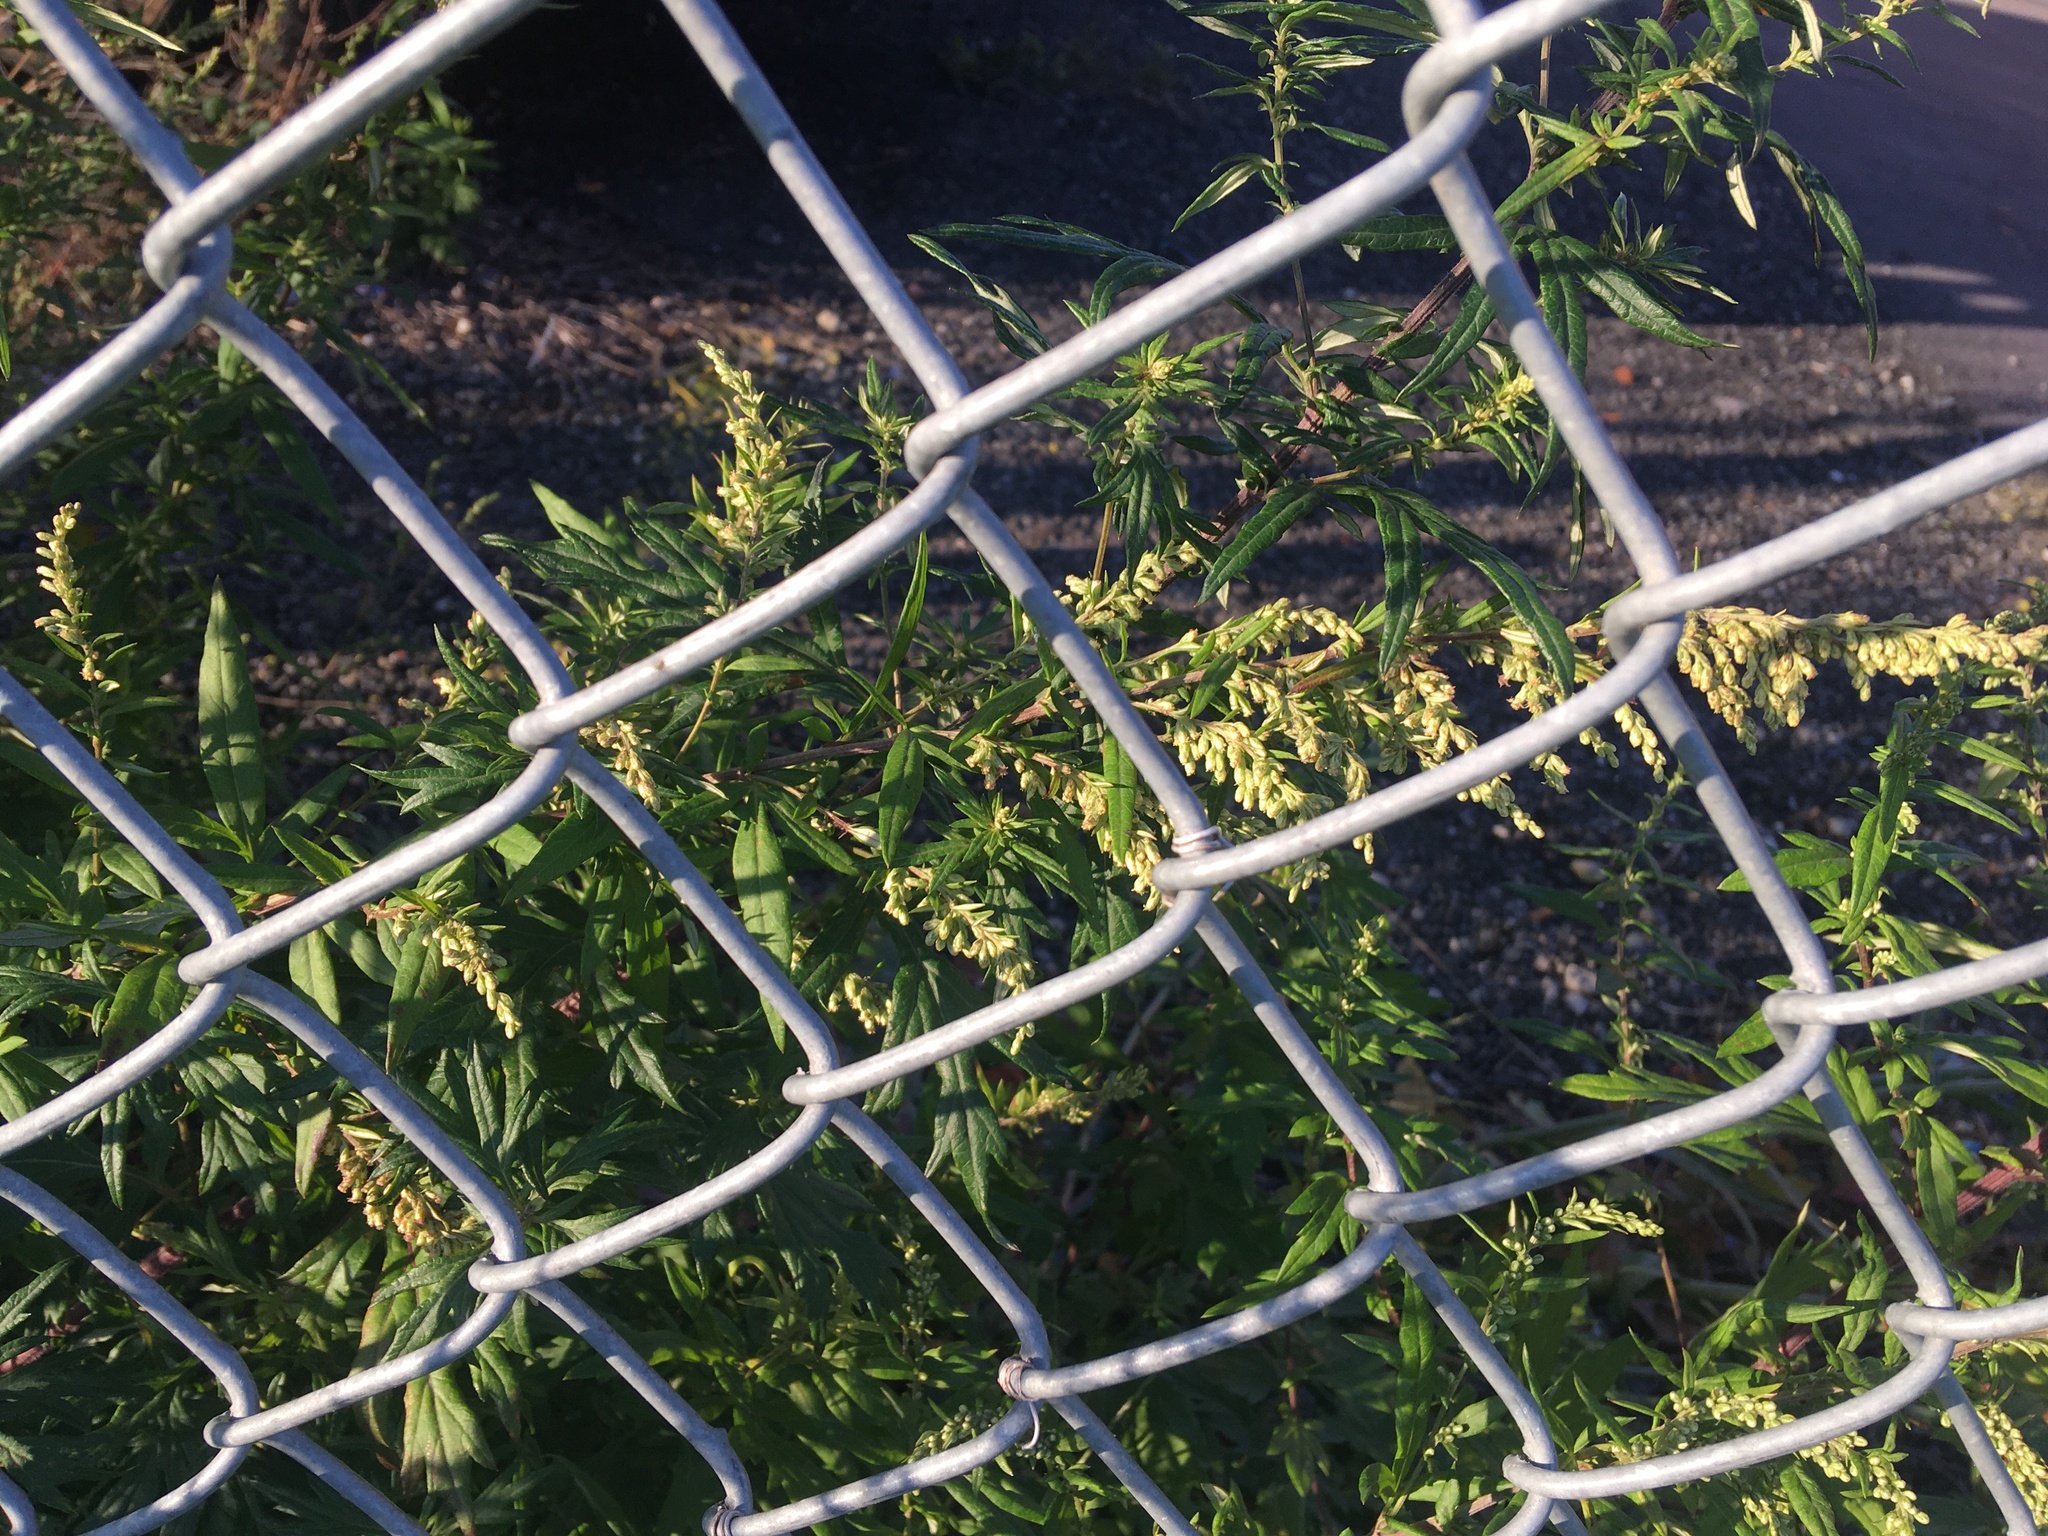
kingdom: Plantae
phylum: Tracheophyta
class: Magnoliopsida
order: Asterales
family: Asteraceae
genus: Artemisia
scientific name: Artemisia vulgaris
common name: Mugwort
